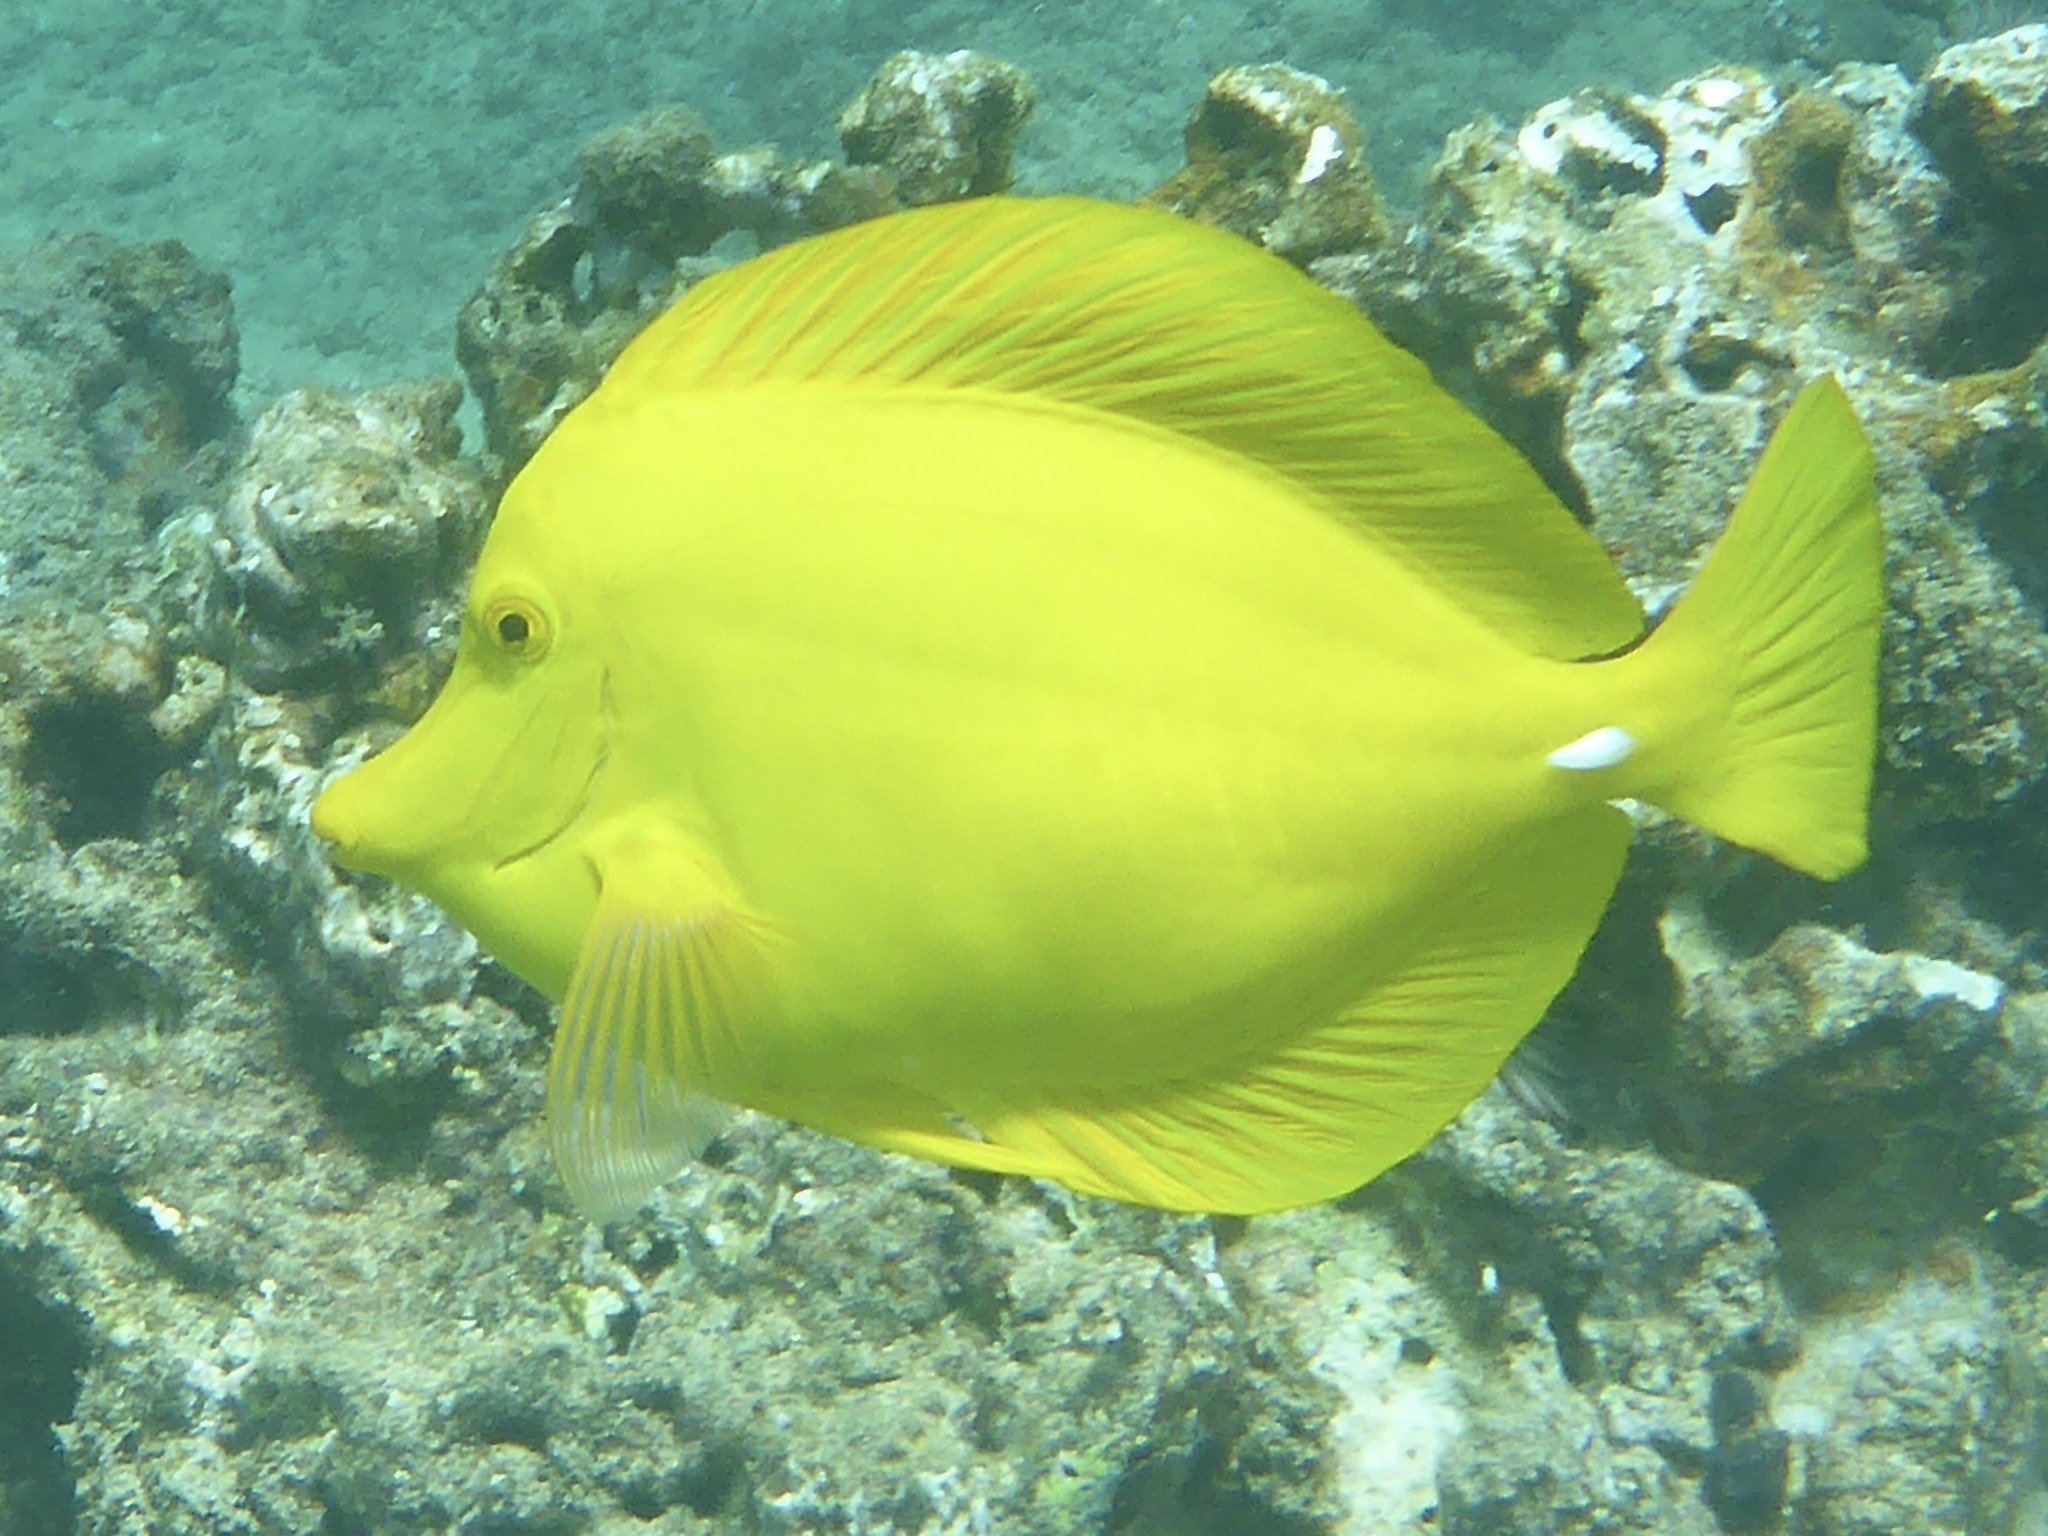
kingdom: Animalia
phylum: Chordata
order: Perciformes
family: Acanthuridae
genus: Zebrasoma
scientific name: Zebrasoma flavescens
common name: Yellow tang
